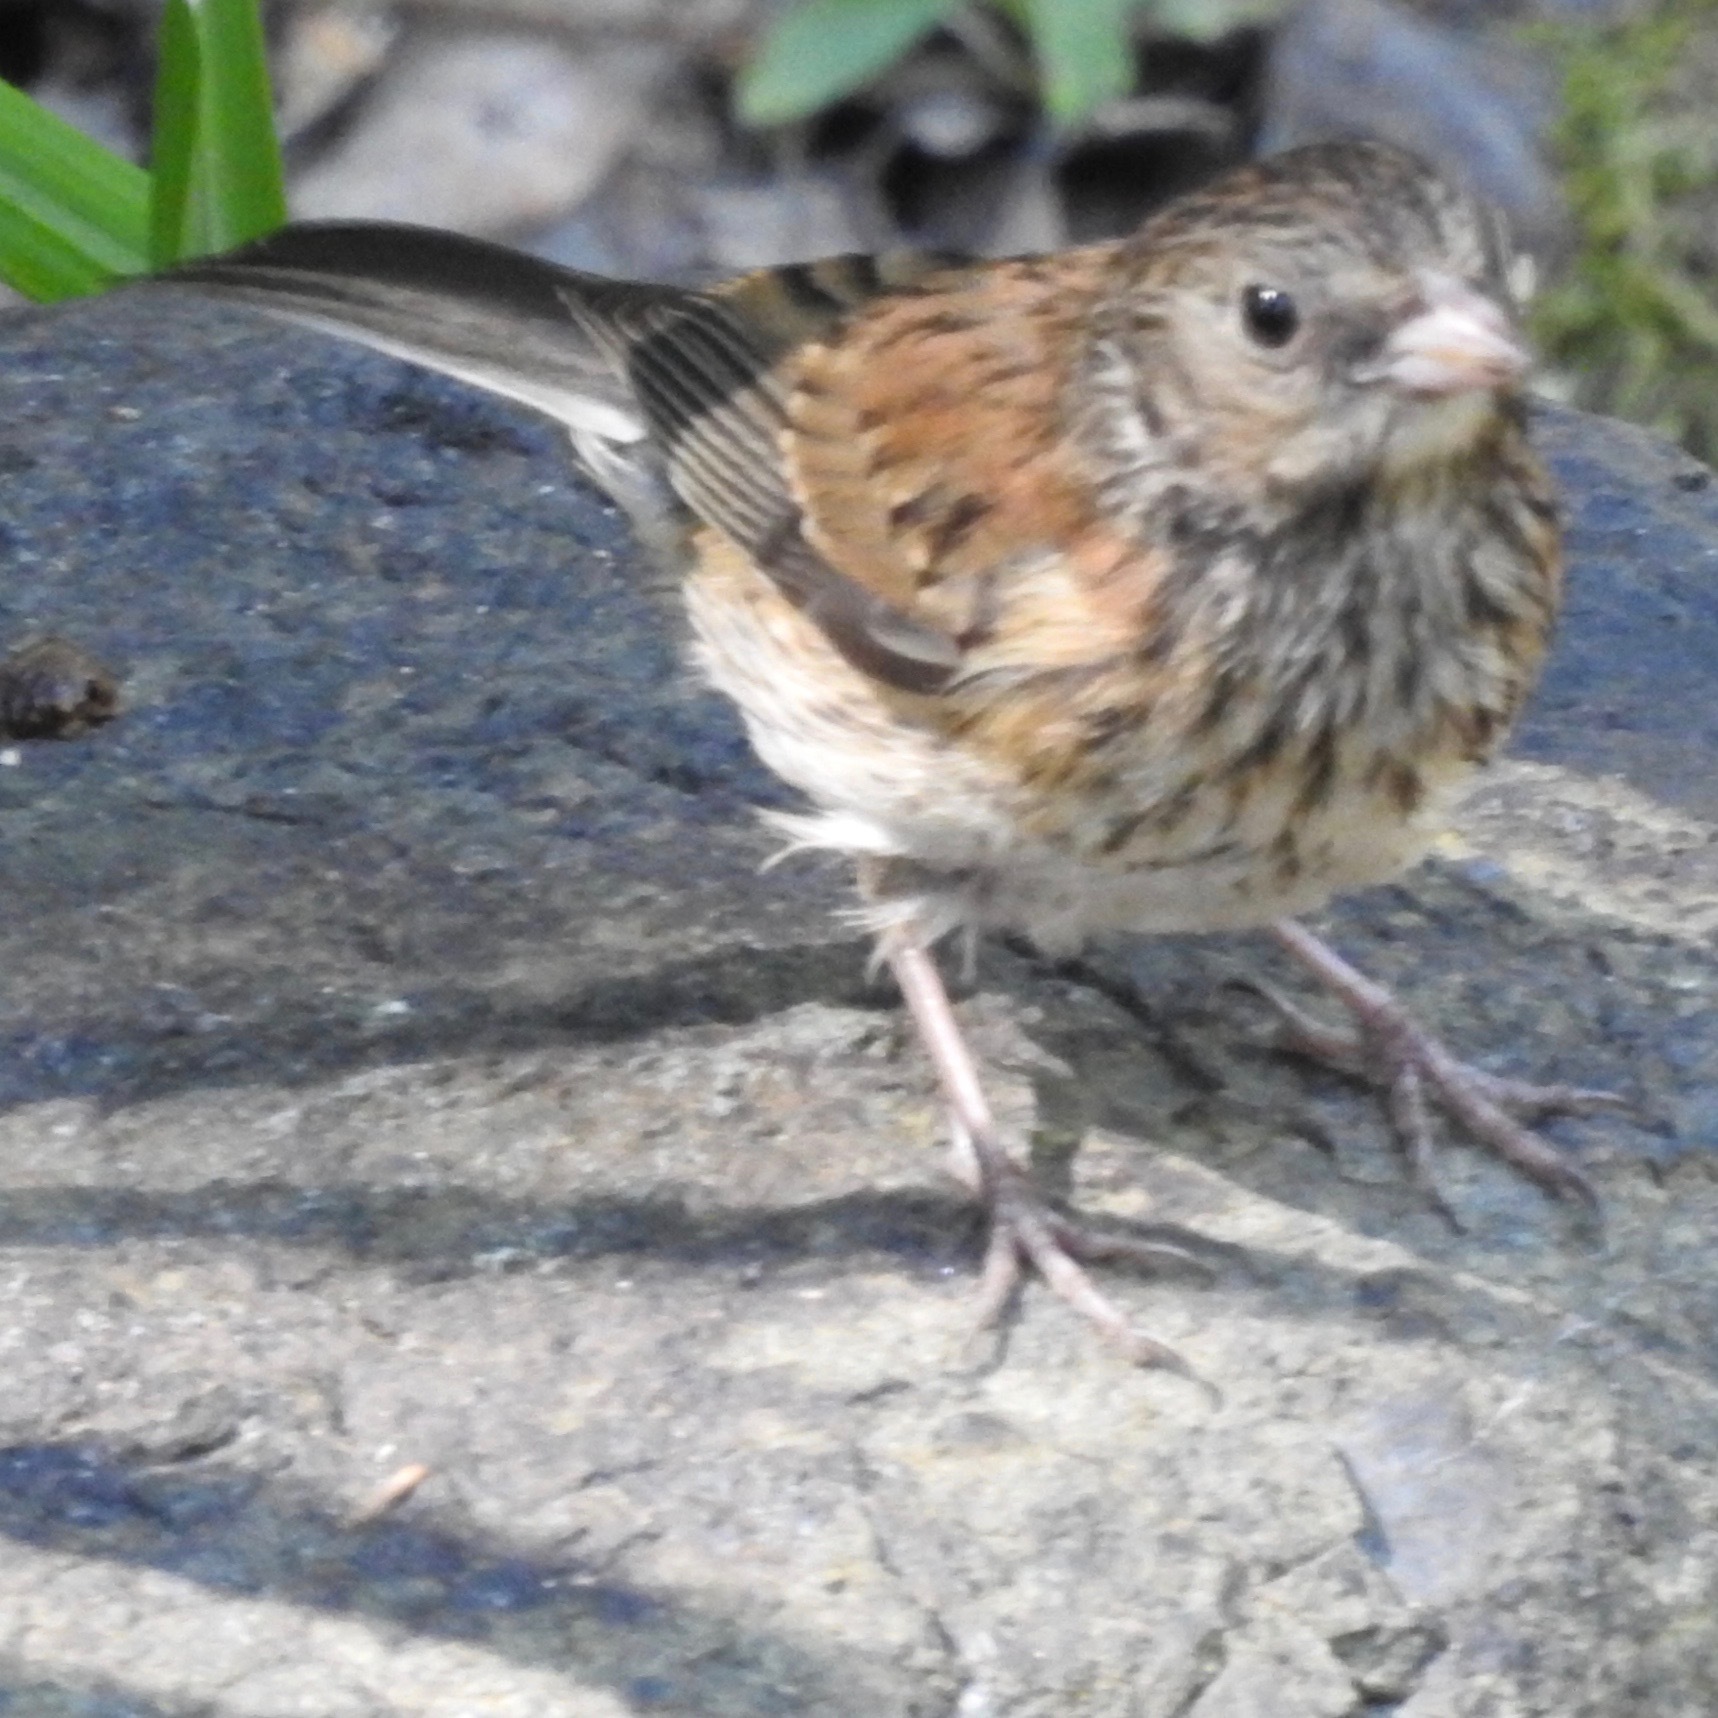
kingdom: Animalia
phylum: Chordata
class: Aves
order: Passeriformes
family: Passerellidae
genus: Junco
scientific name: Junco hyemalis
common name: Dark-eyed junco
